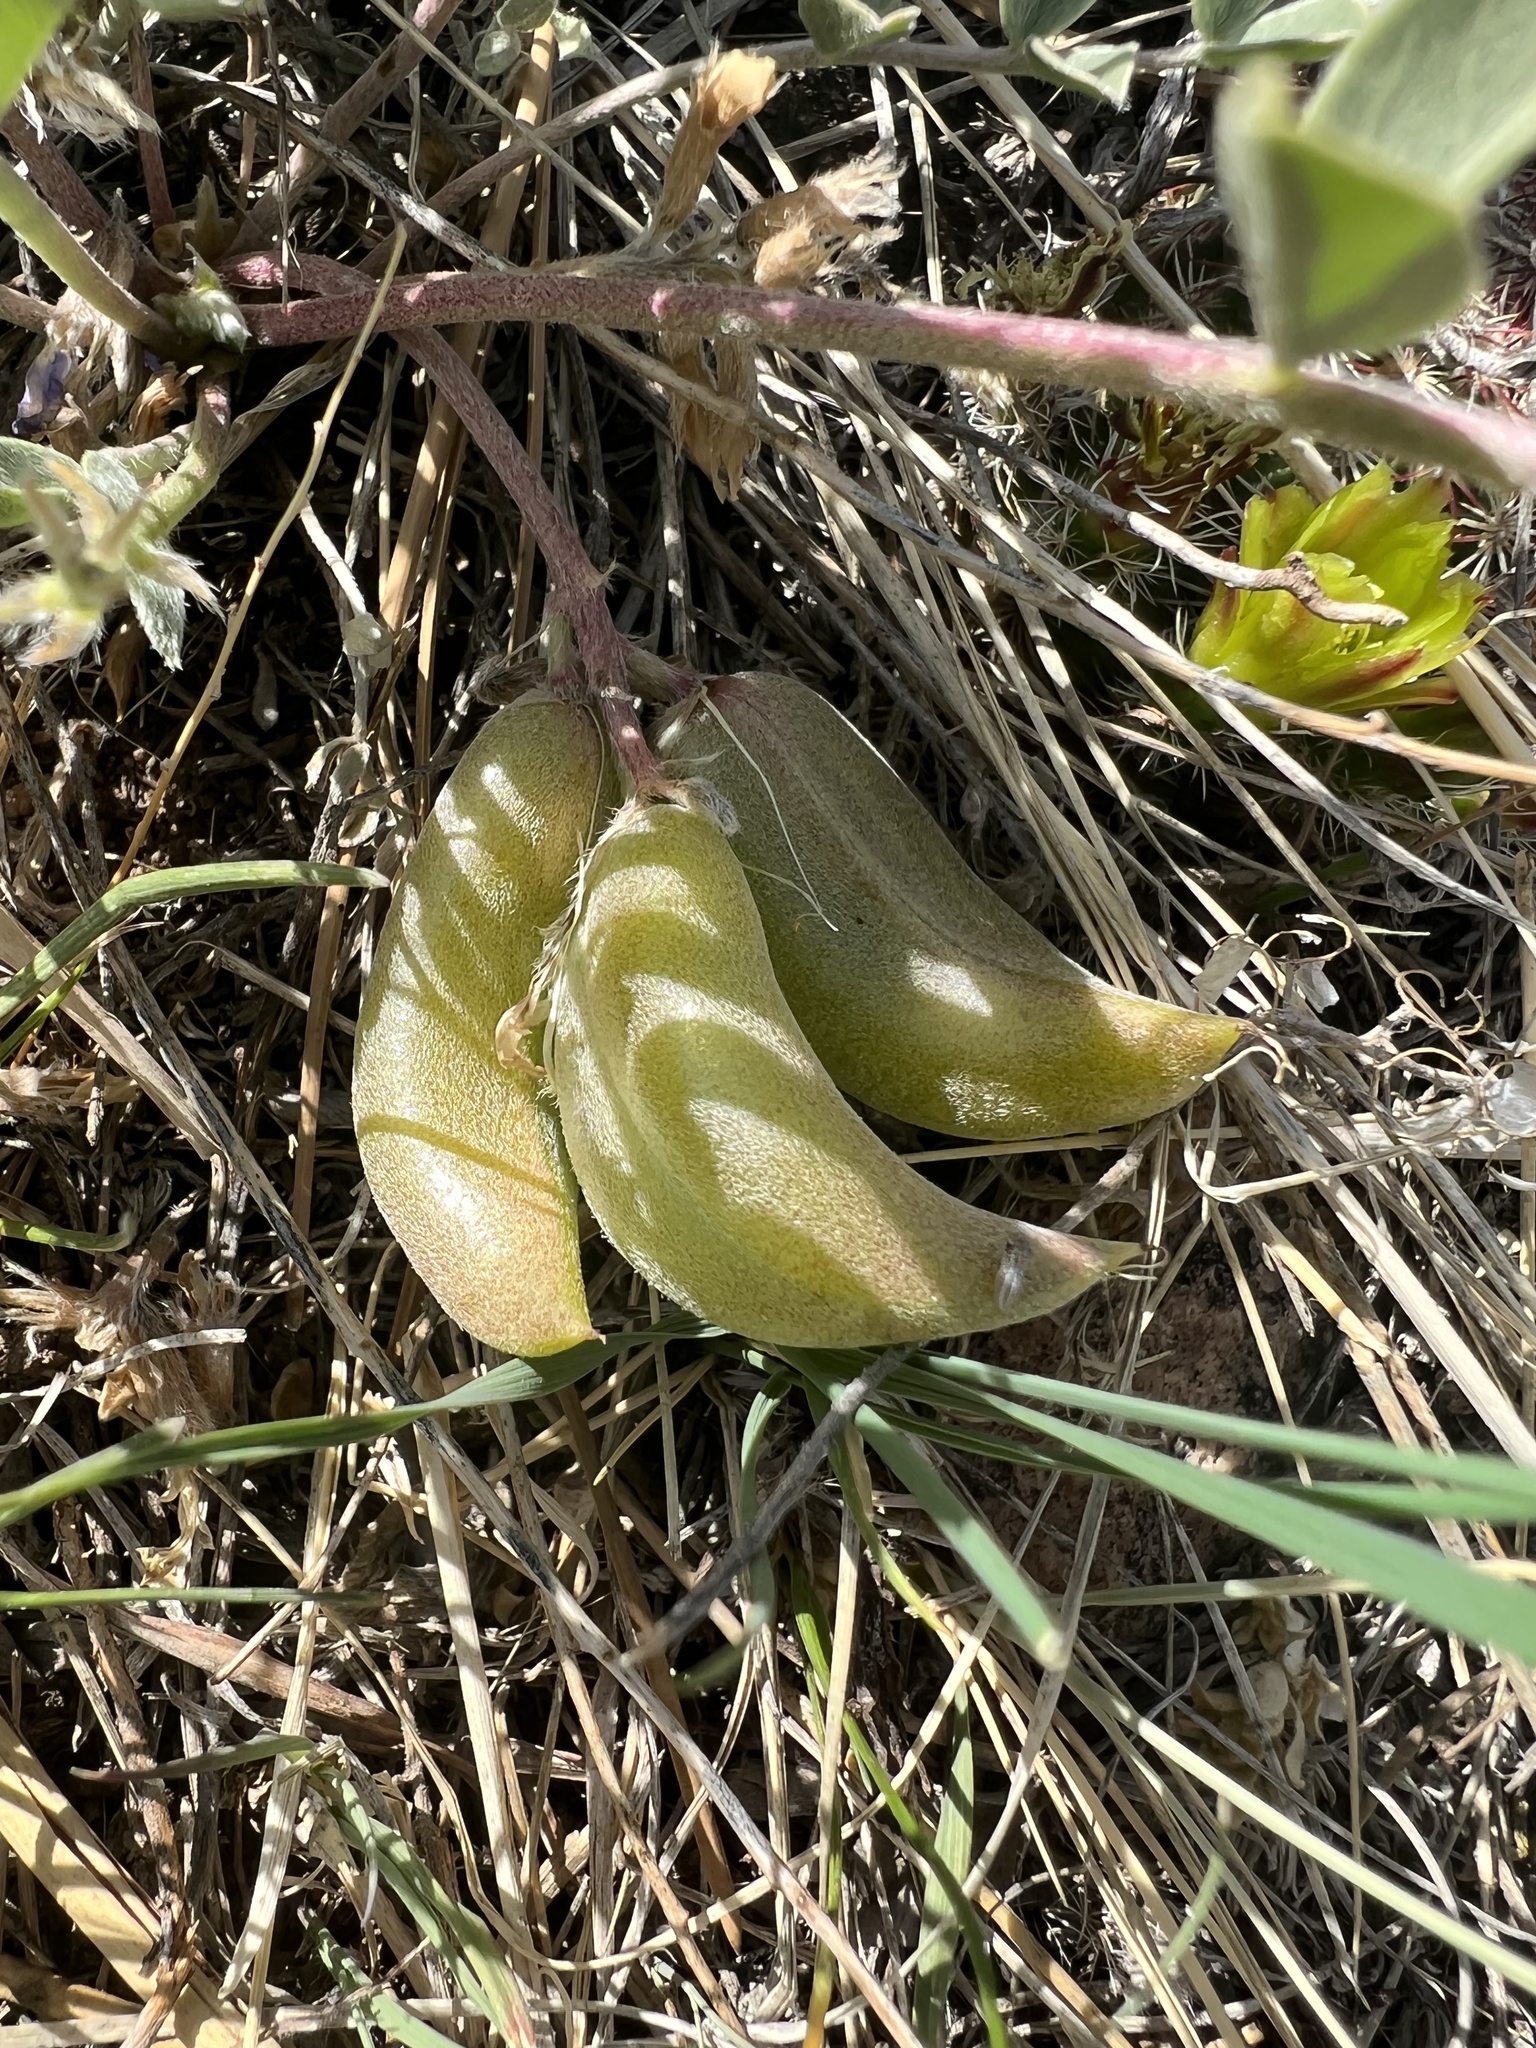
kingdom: Plantae
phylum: Tracheophyta
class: Magnoliopsida
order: Fabales
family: Fabaceae
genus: Astragalus
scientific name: Astragalus shortianus
